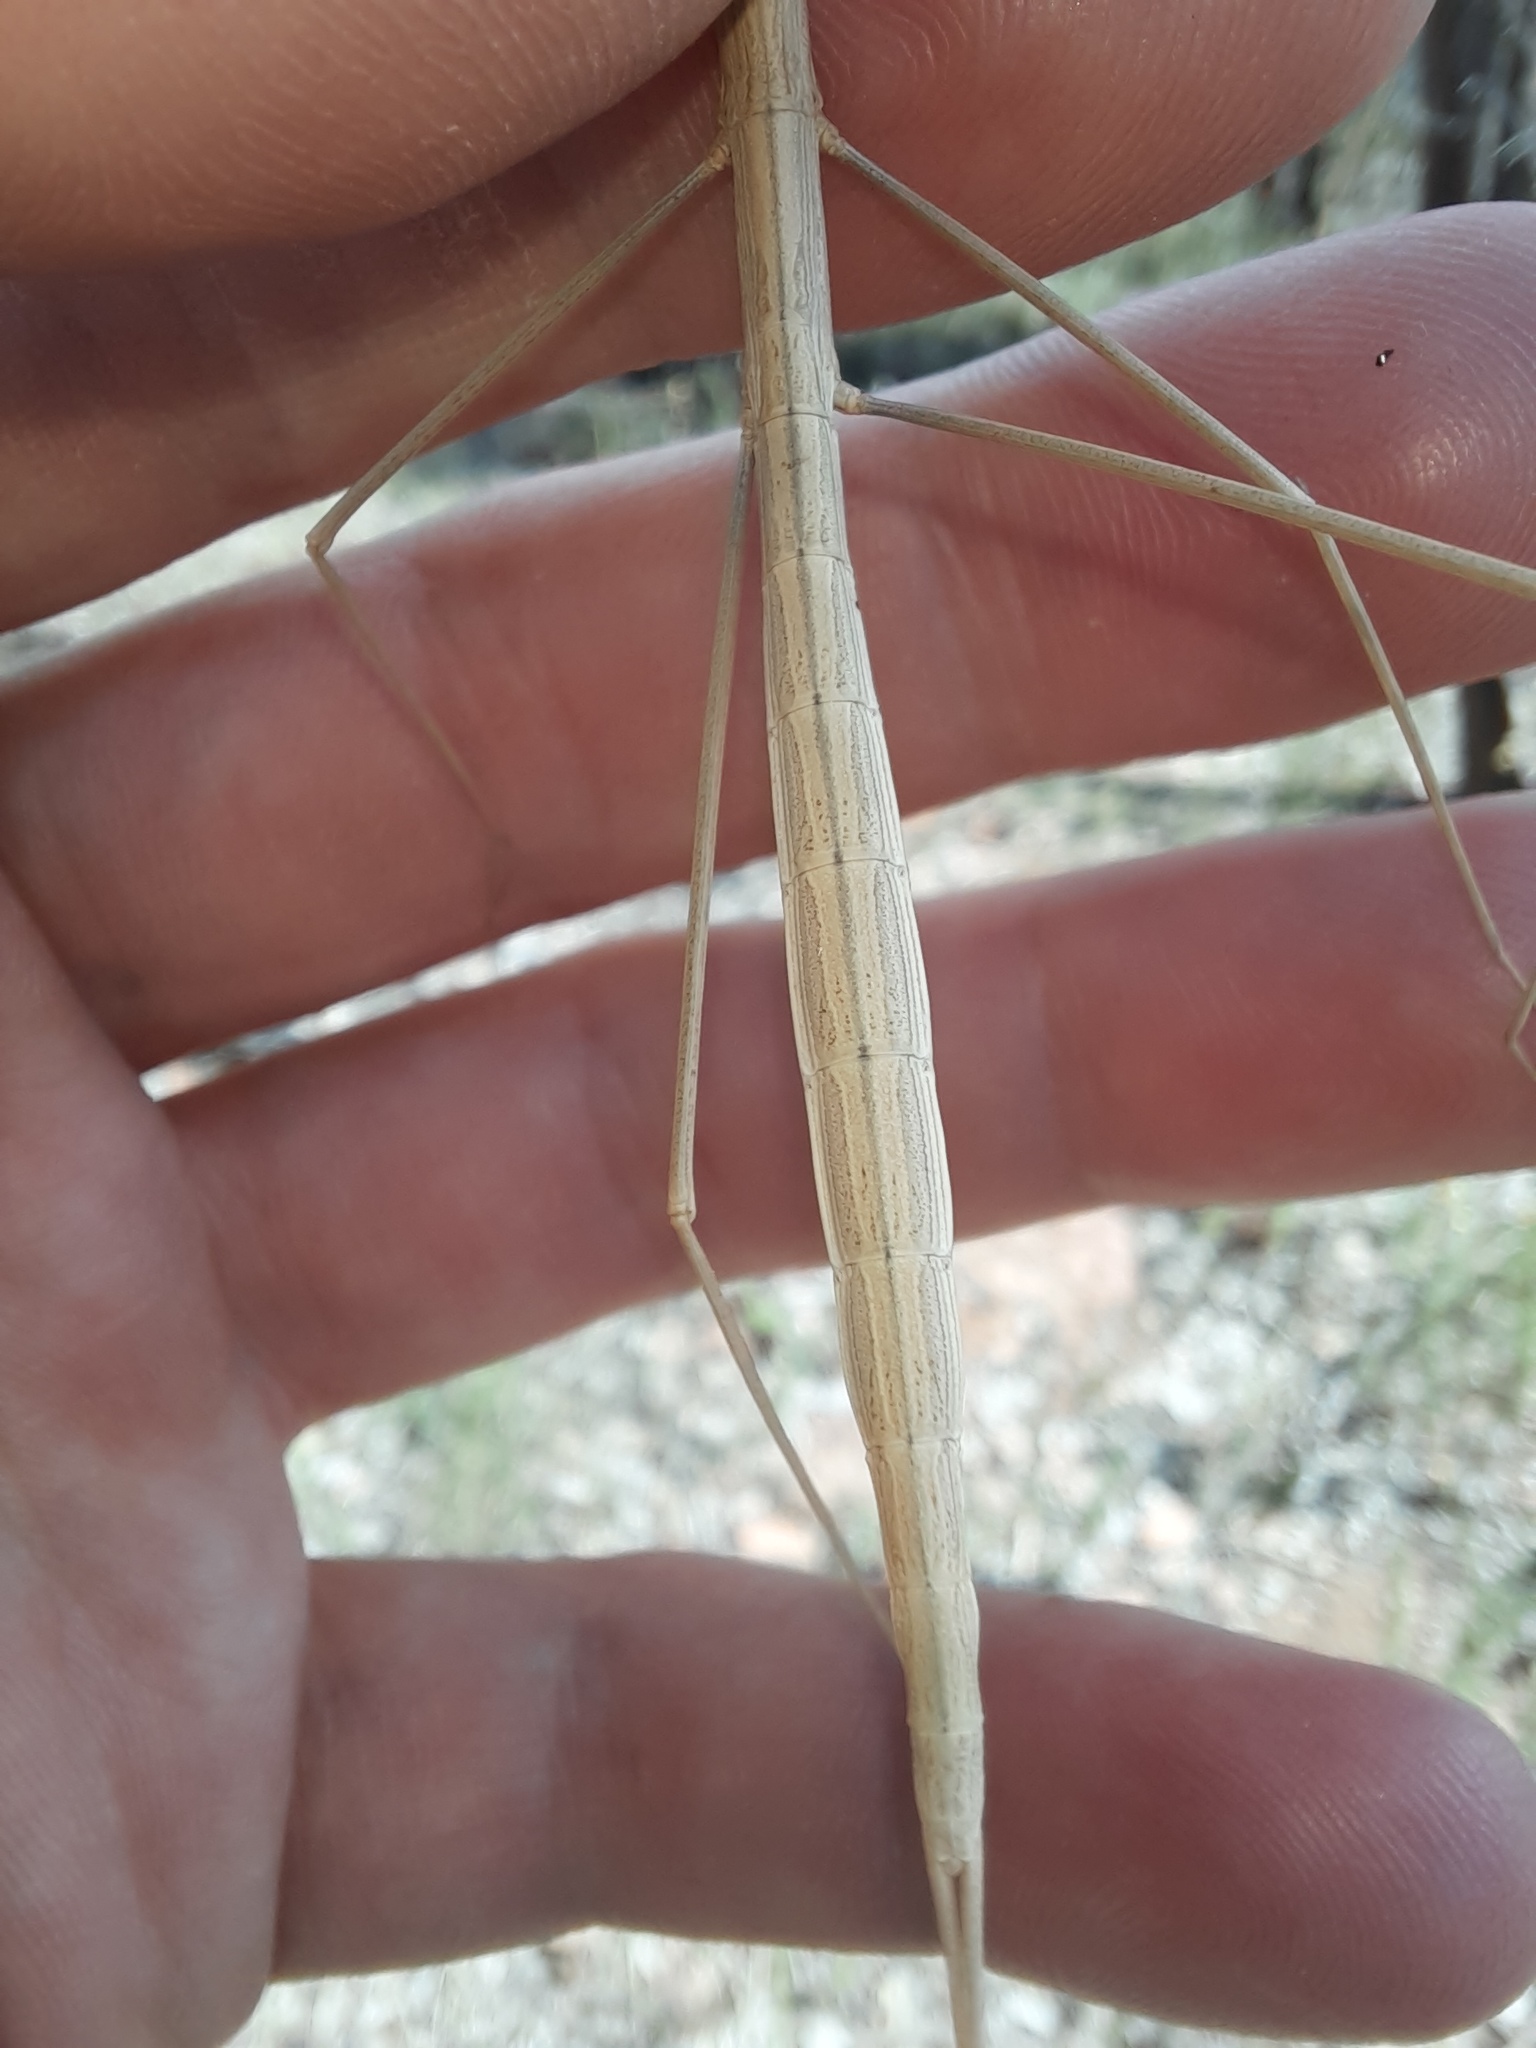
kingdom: Animalia
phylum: Arthropoda
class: Insecta
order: Phasmida
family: Lonchodidae
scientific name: Lonchodidae
